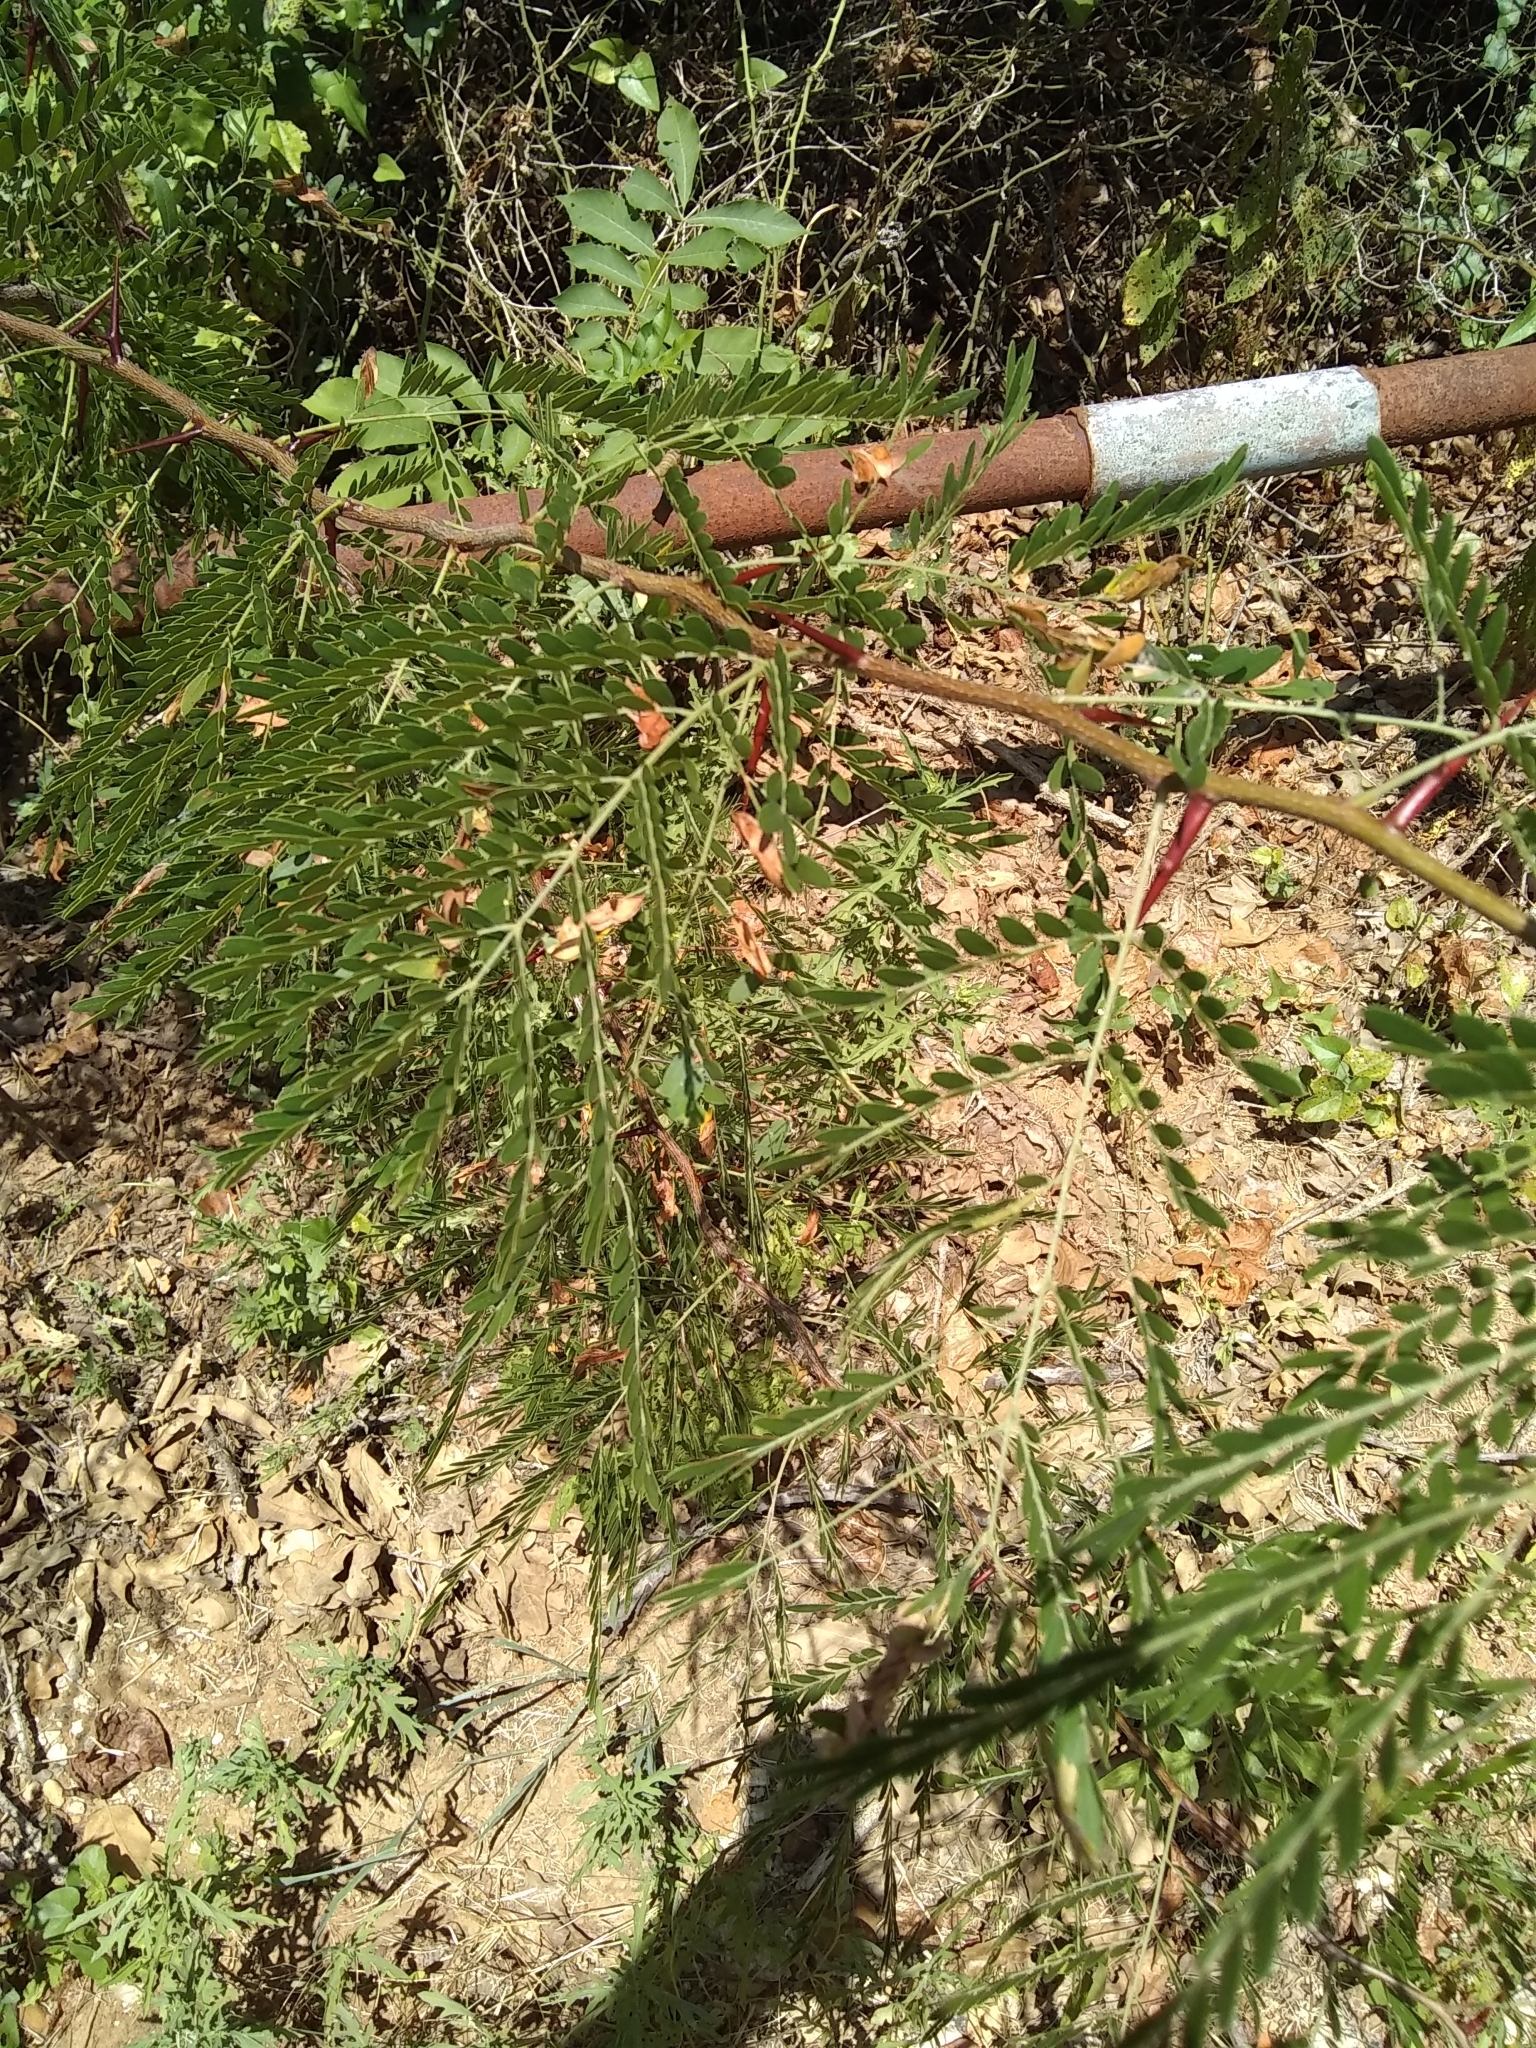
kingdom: Plantae
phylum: Tracheophyta
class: Magnoliopsida
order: Fabales
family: Fabaceae
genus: Gleditsia
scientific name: Gleditsia triacanthos
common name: Common honeylocust
